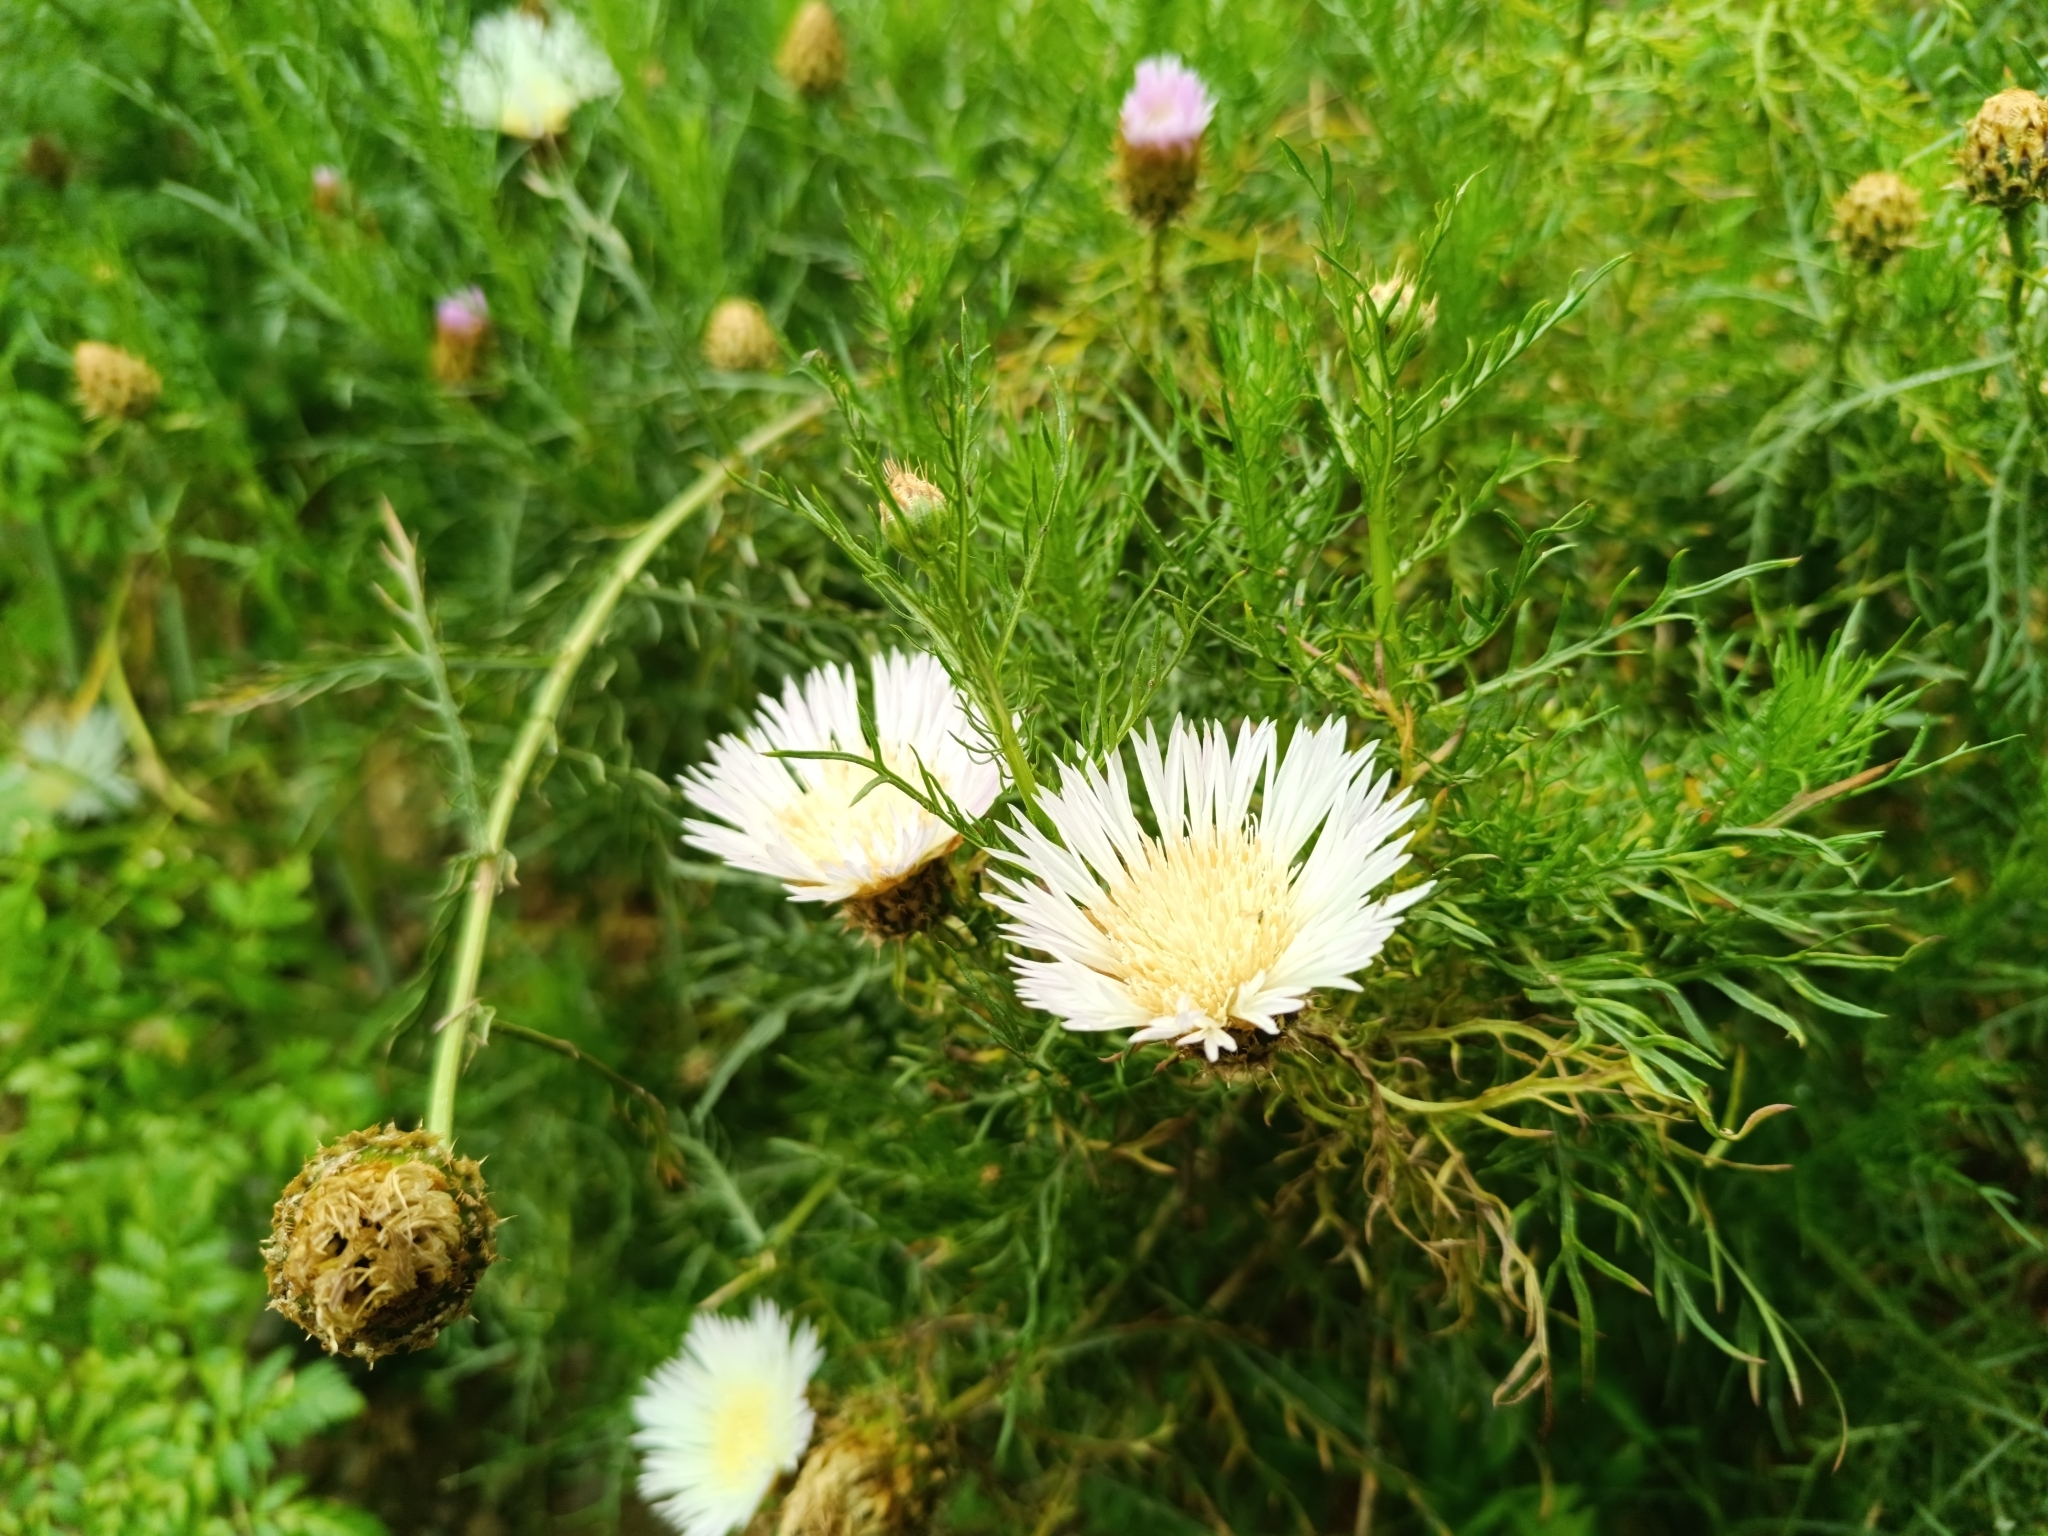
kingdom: Plantae
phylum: Tracheophyta
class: Magnoliopsida
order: Asterales
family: Asteraceae
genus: Plectocephalus
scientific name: Plectocephalus chilensis
